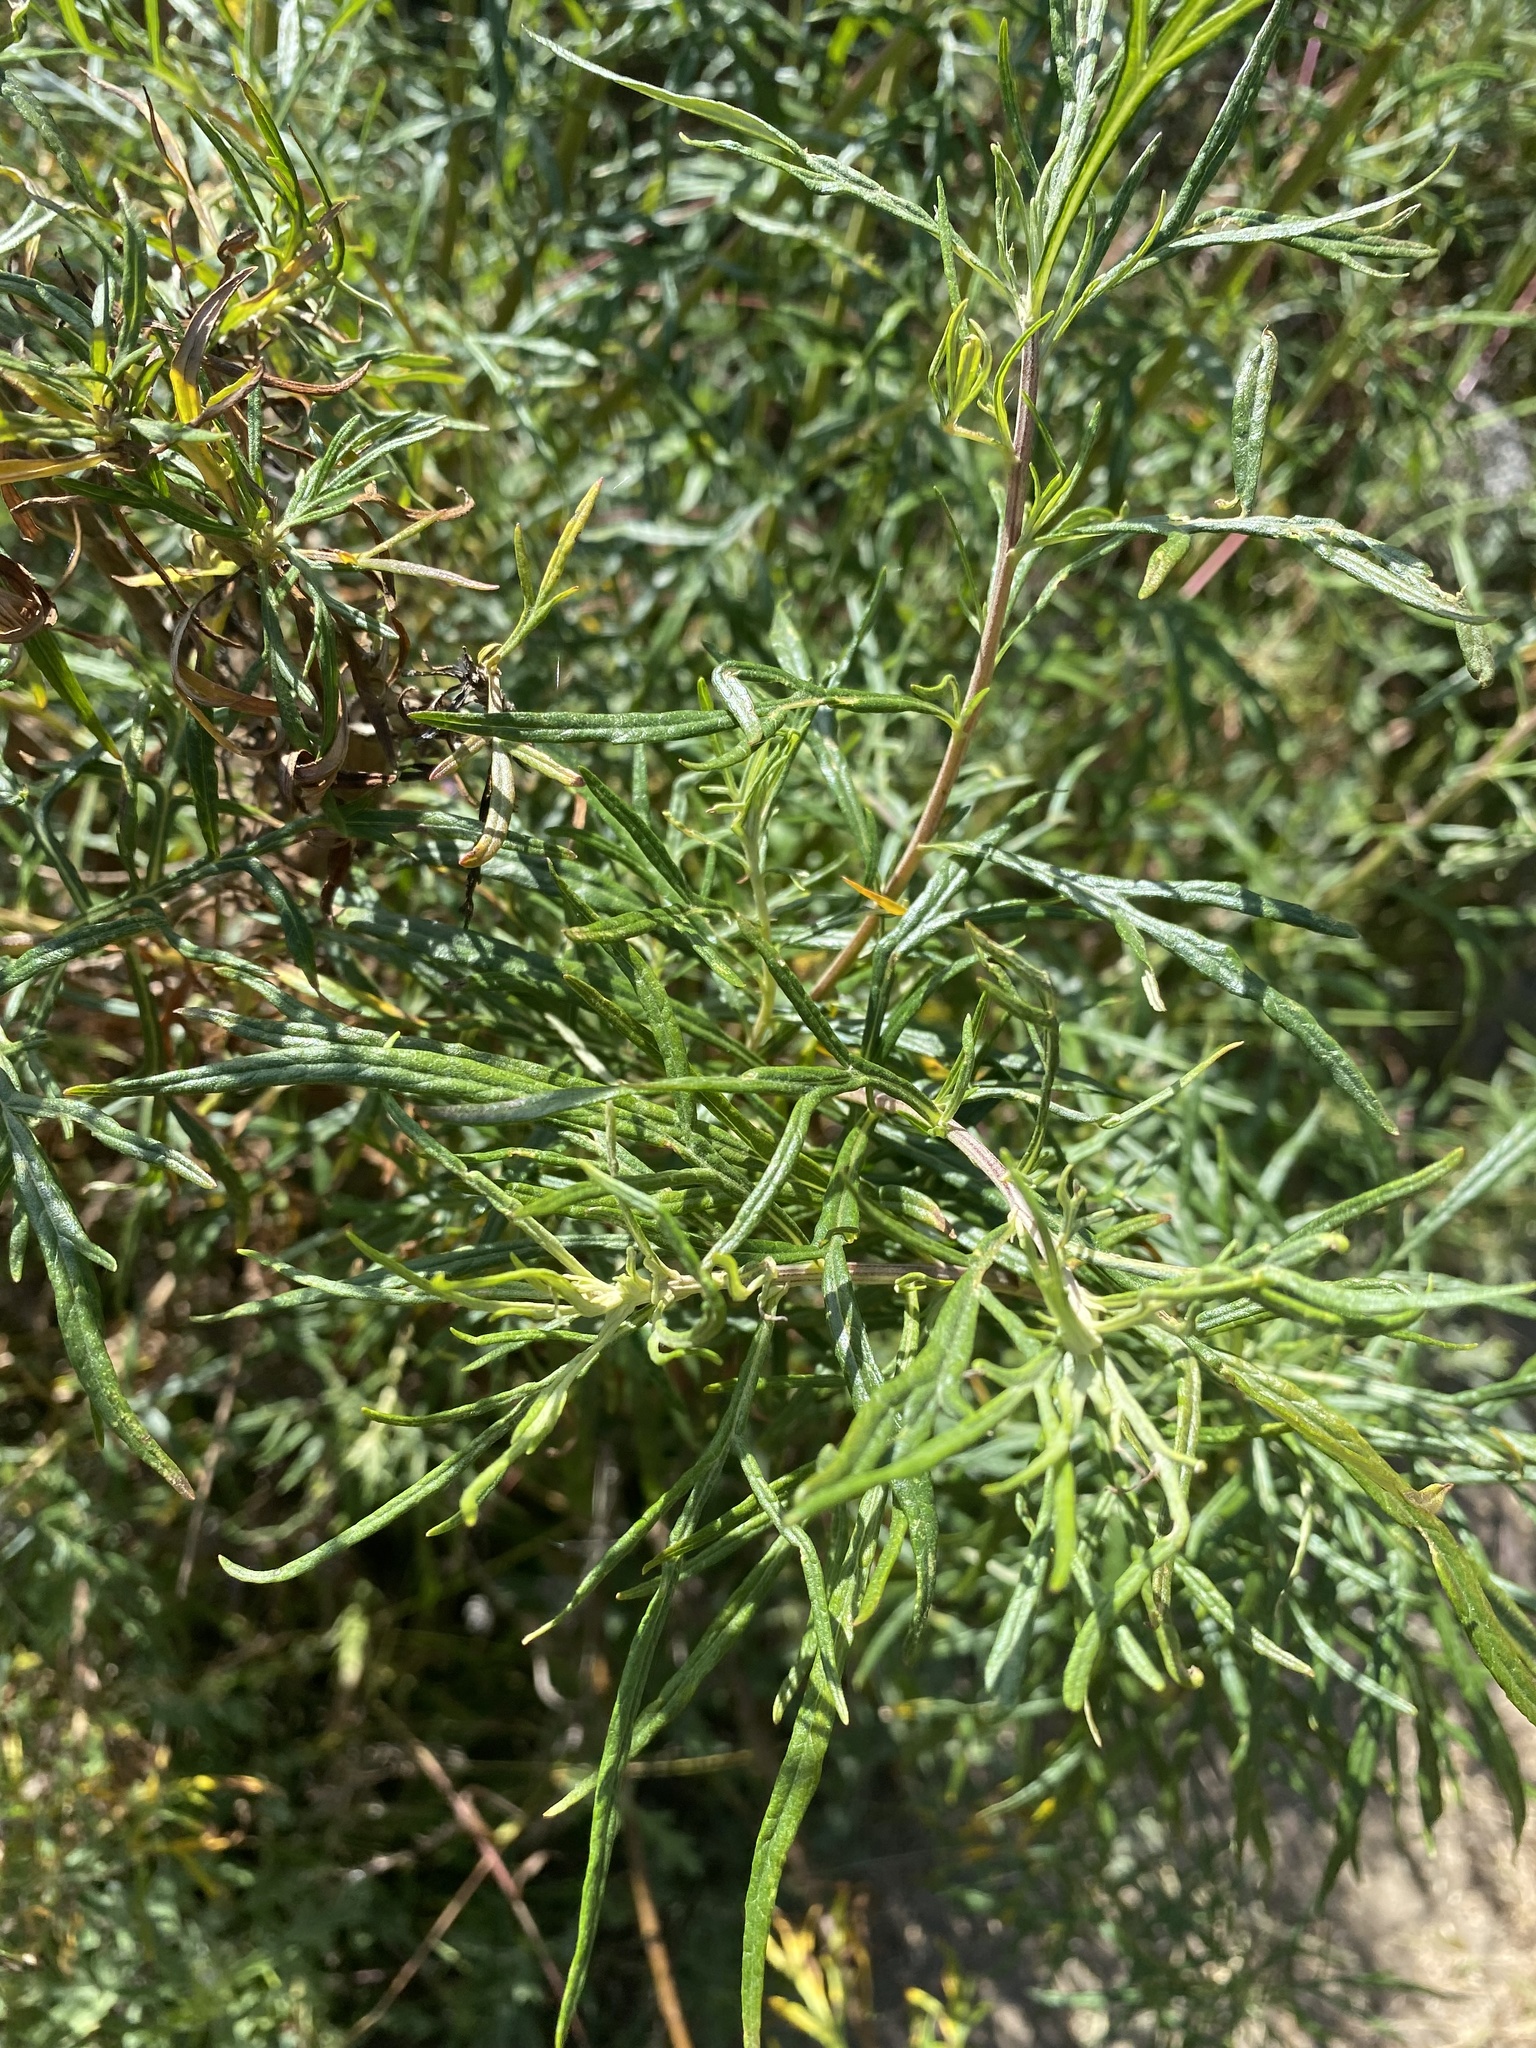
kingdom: Plantae
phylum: Tracheophyta
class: Magnoliopsida
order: Asterales
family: Asteraceae
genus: Artemisia
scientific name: Artemisia palmeri
